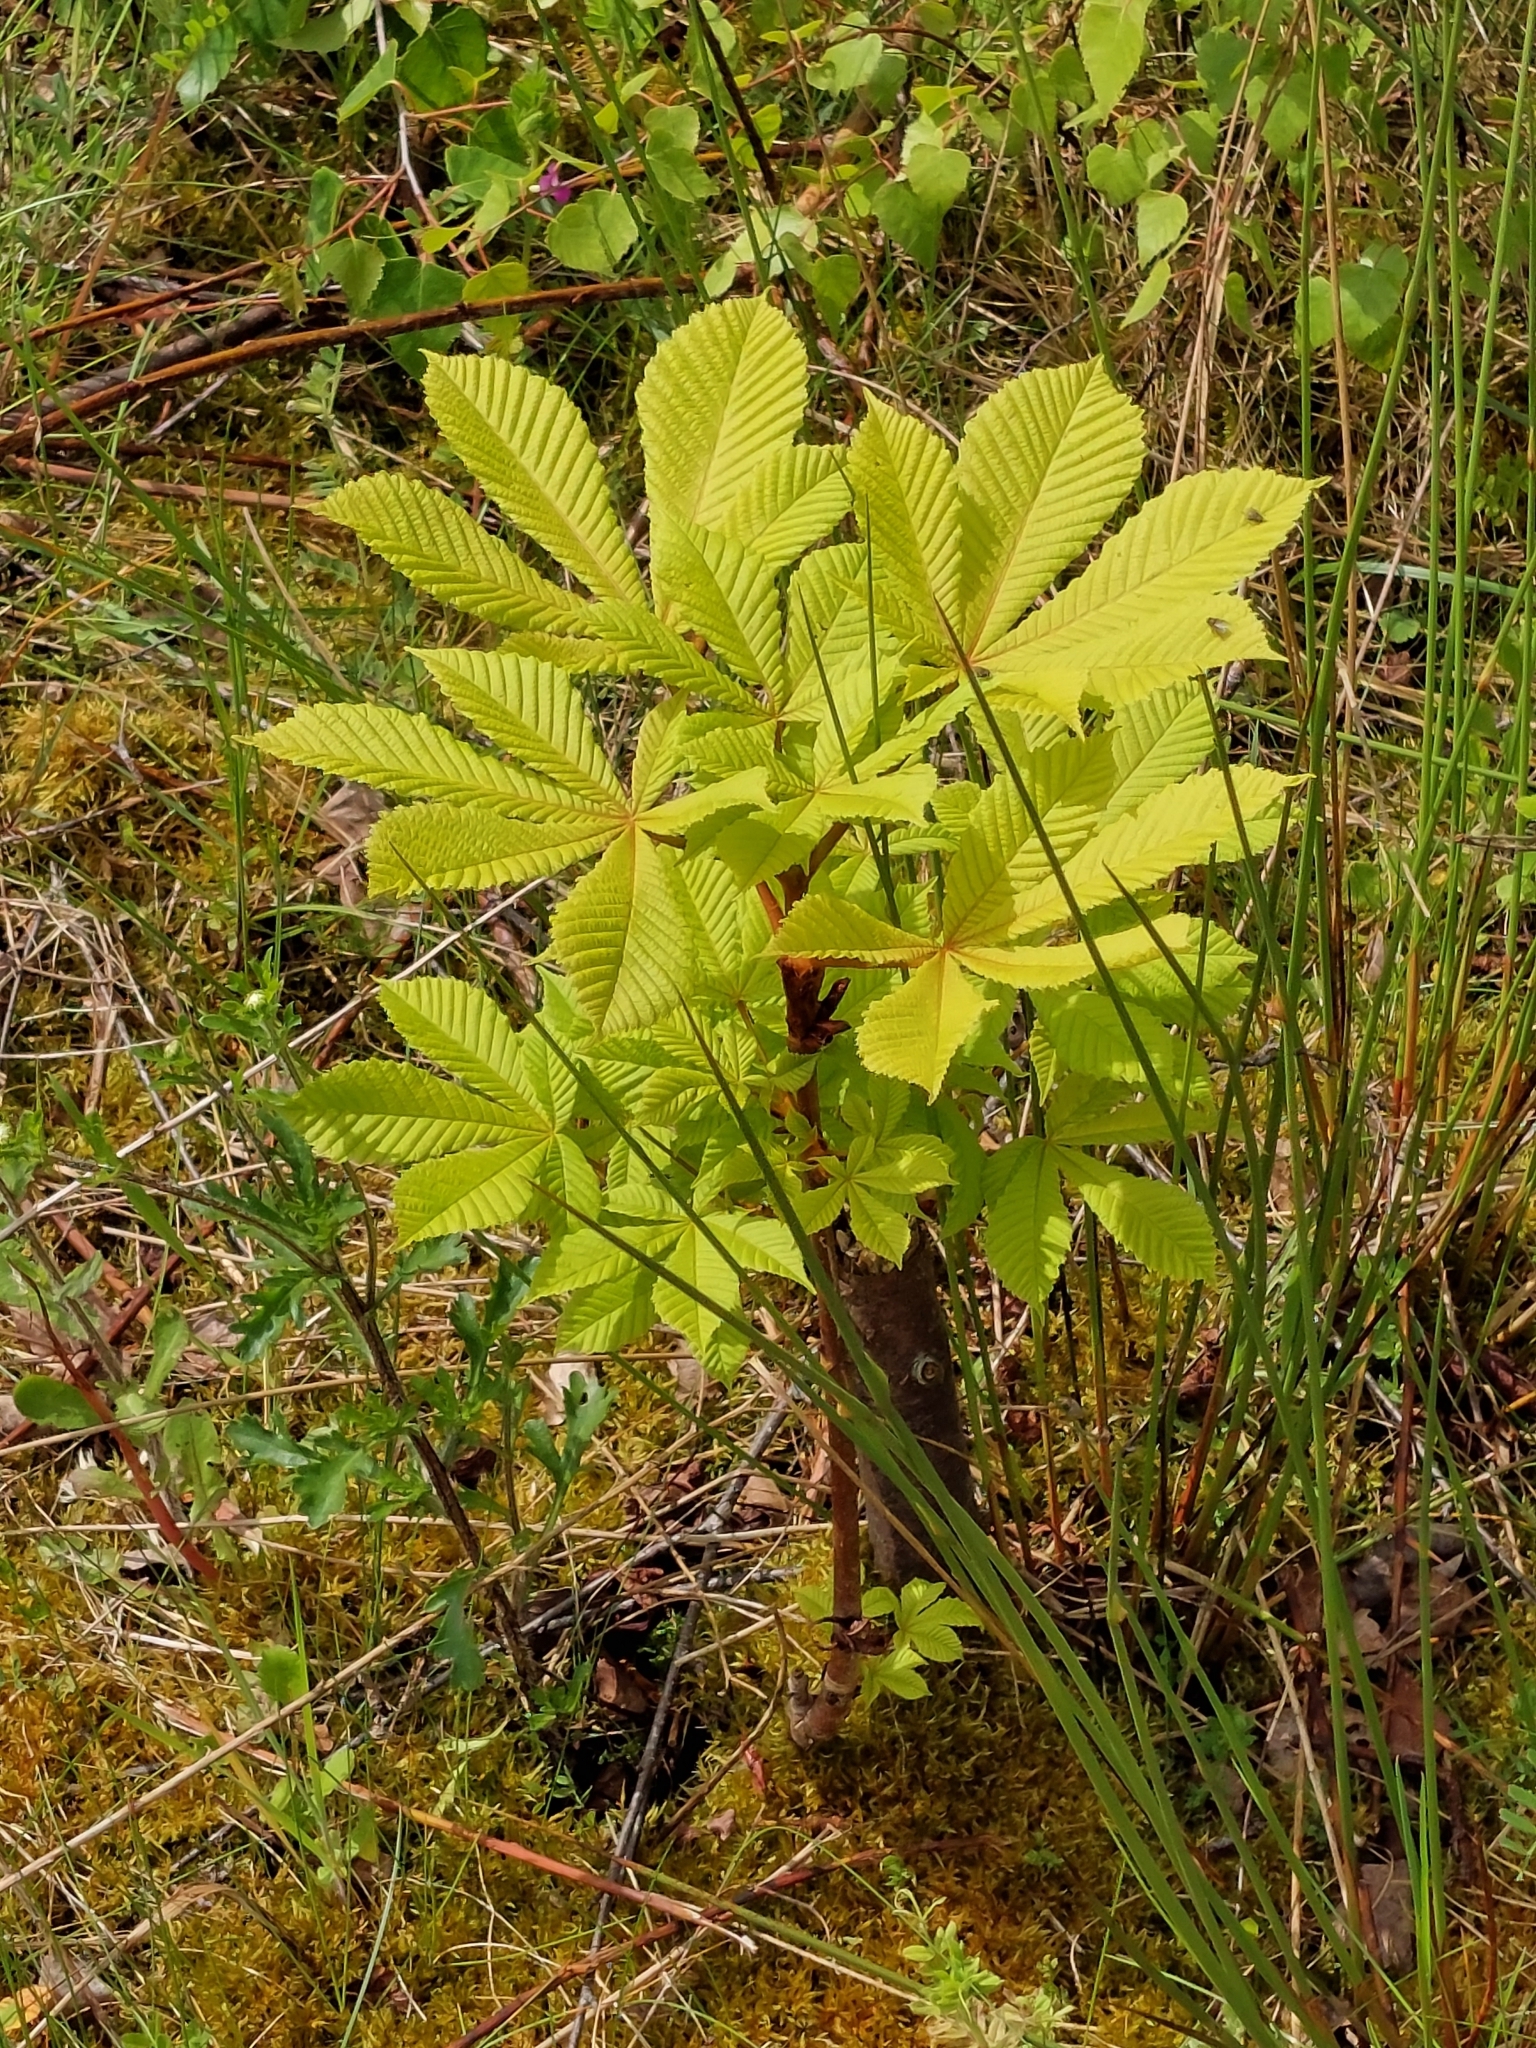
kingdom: Plantae
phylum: Tracheophyta
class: Magnoliopsida
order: Sapindales
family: Sapindaceae
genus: Aesculus
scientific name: Aesculus hippocastanum
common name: Horse-chestnut
